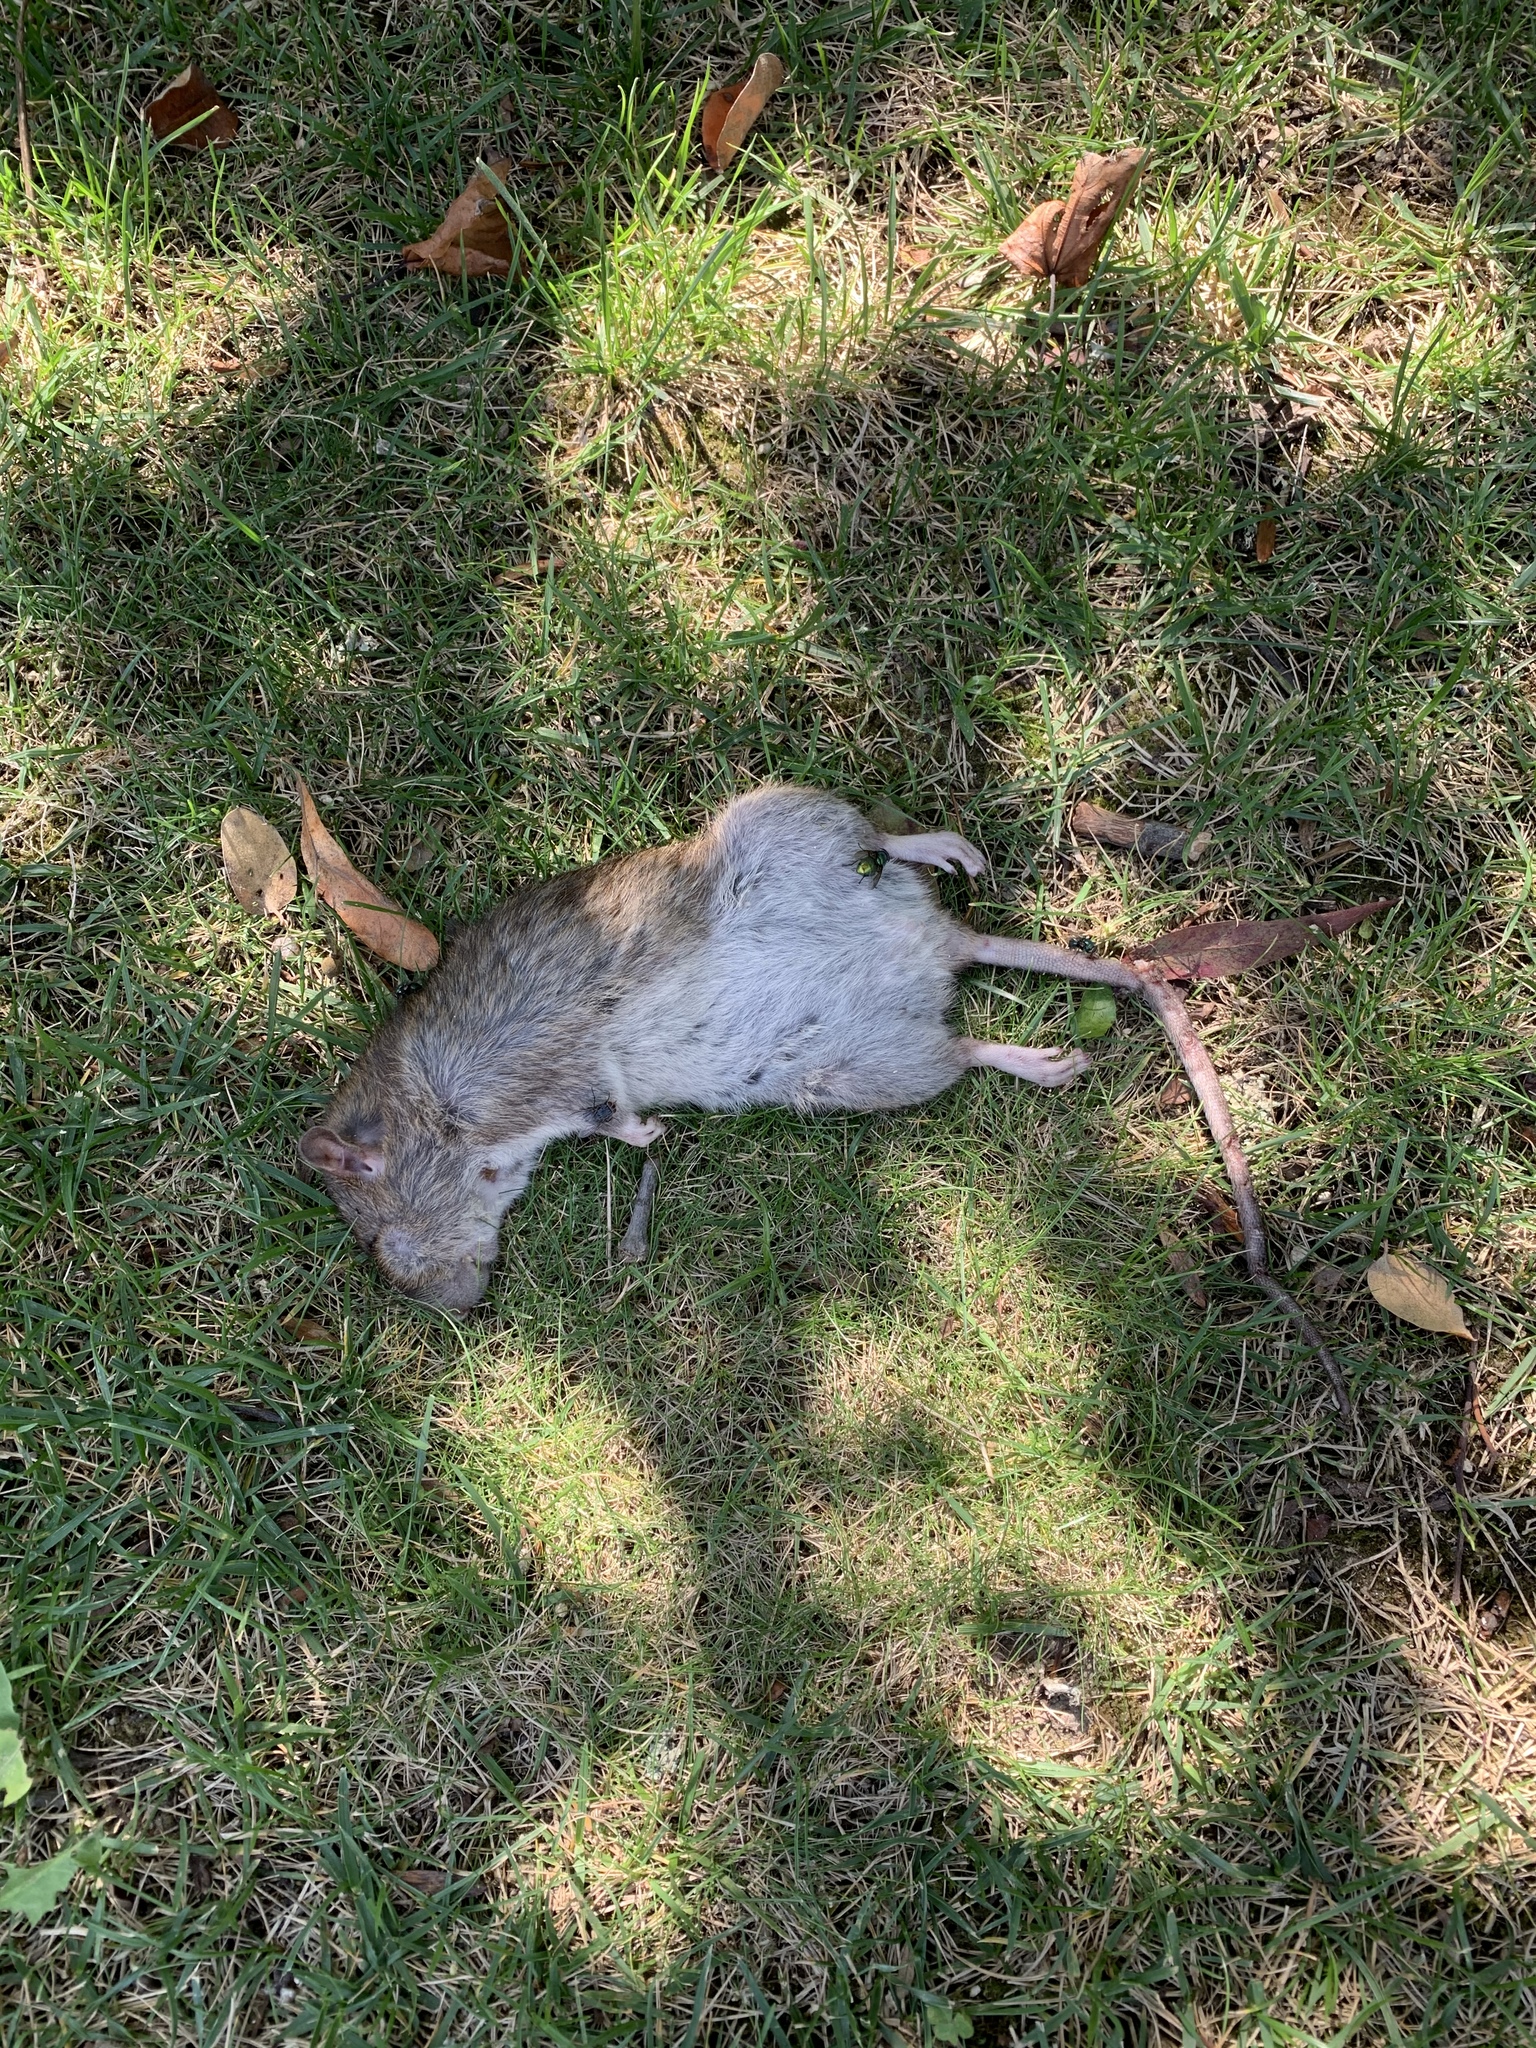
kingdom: Animalia
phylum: Chordata
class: Mammalia
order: Rodentia
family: Muridae
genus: Rattus
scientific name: Rattus norvegicus
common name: Brown rat
